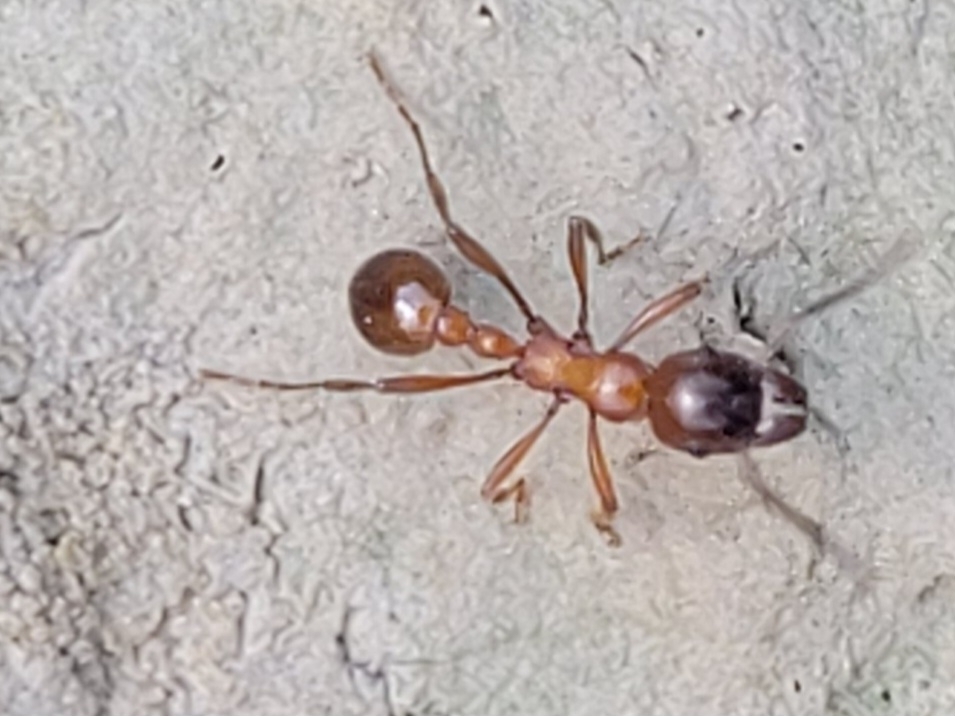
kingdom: Animalia
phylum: Arthropoda
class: Insecta
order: Hymenoptera
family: Formicidae
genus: Manica
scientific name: Manica rubida
